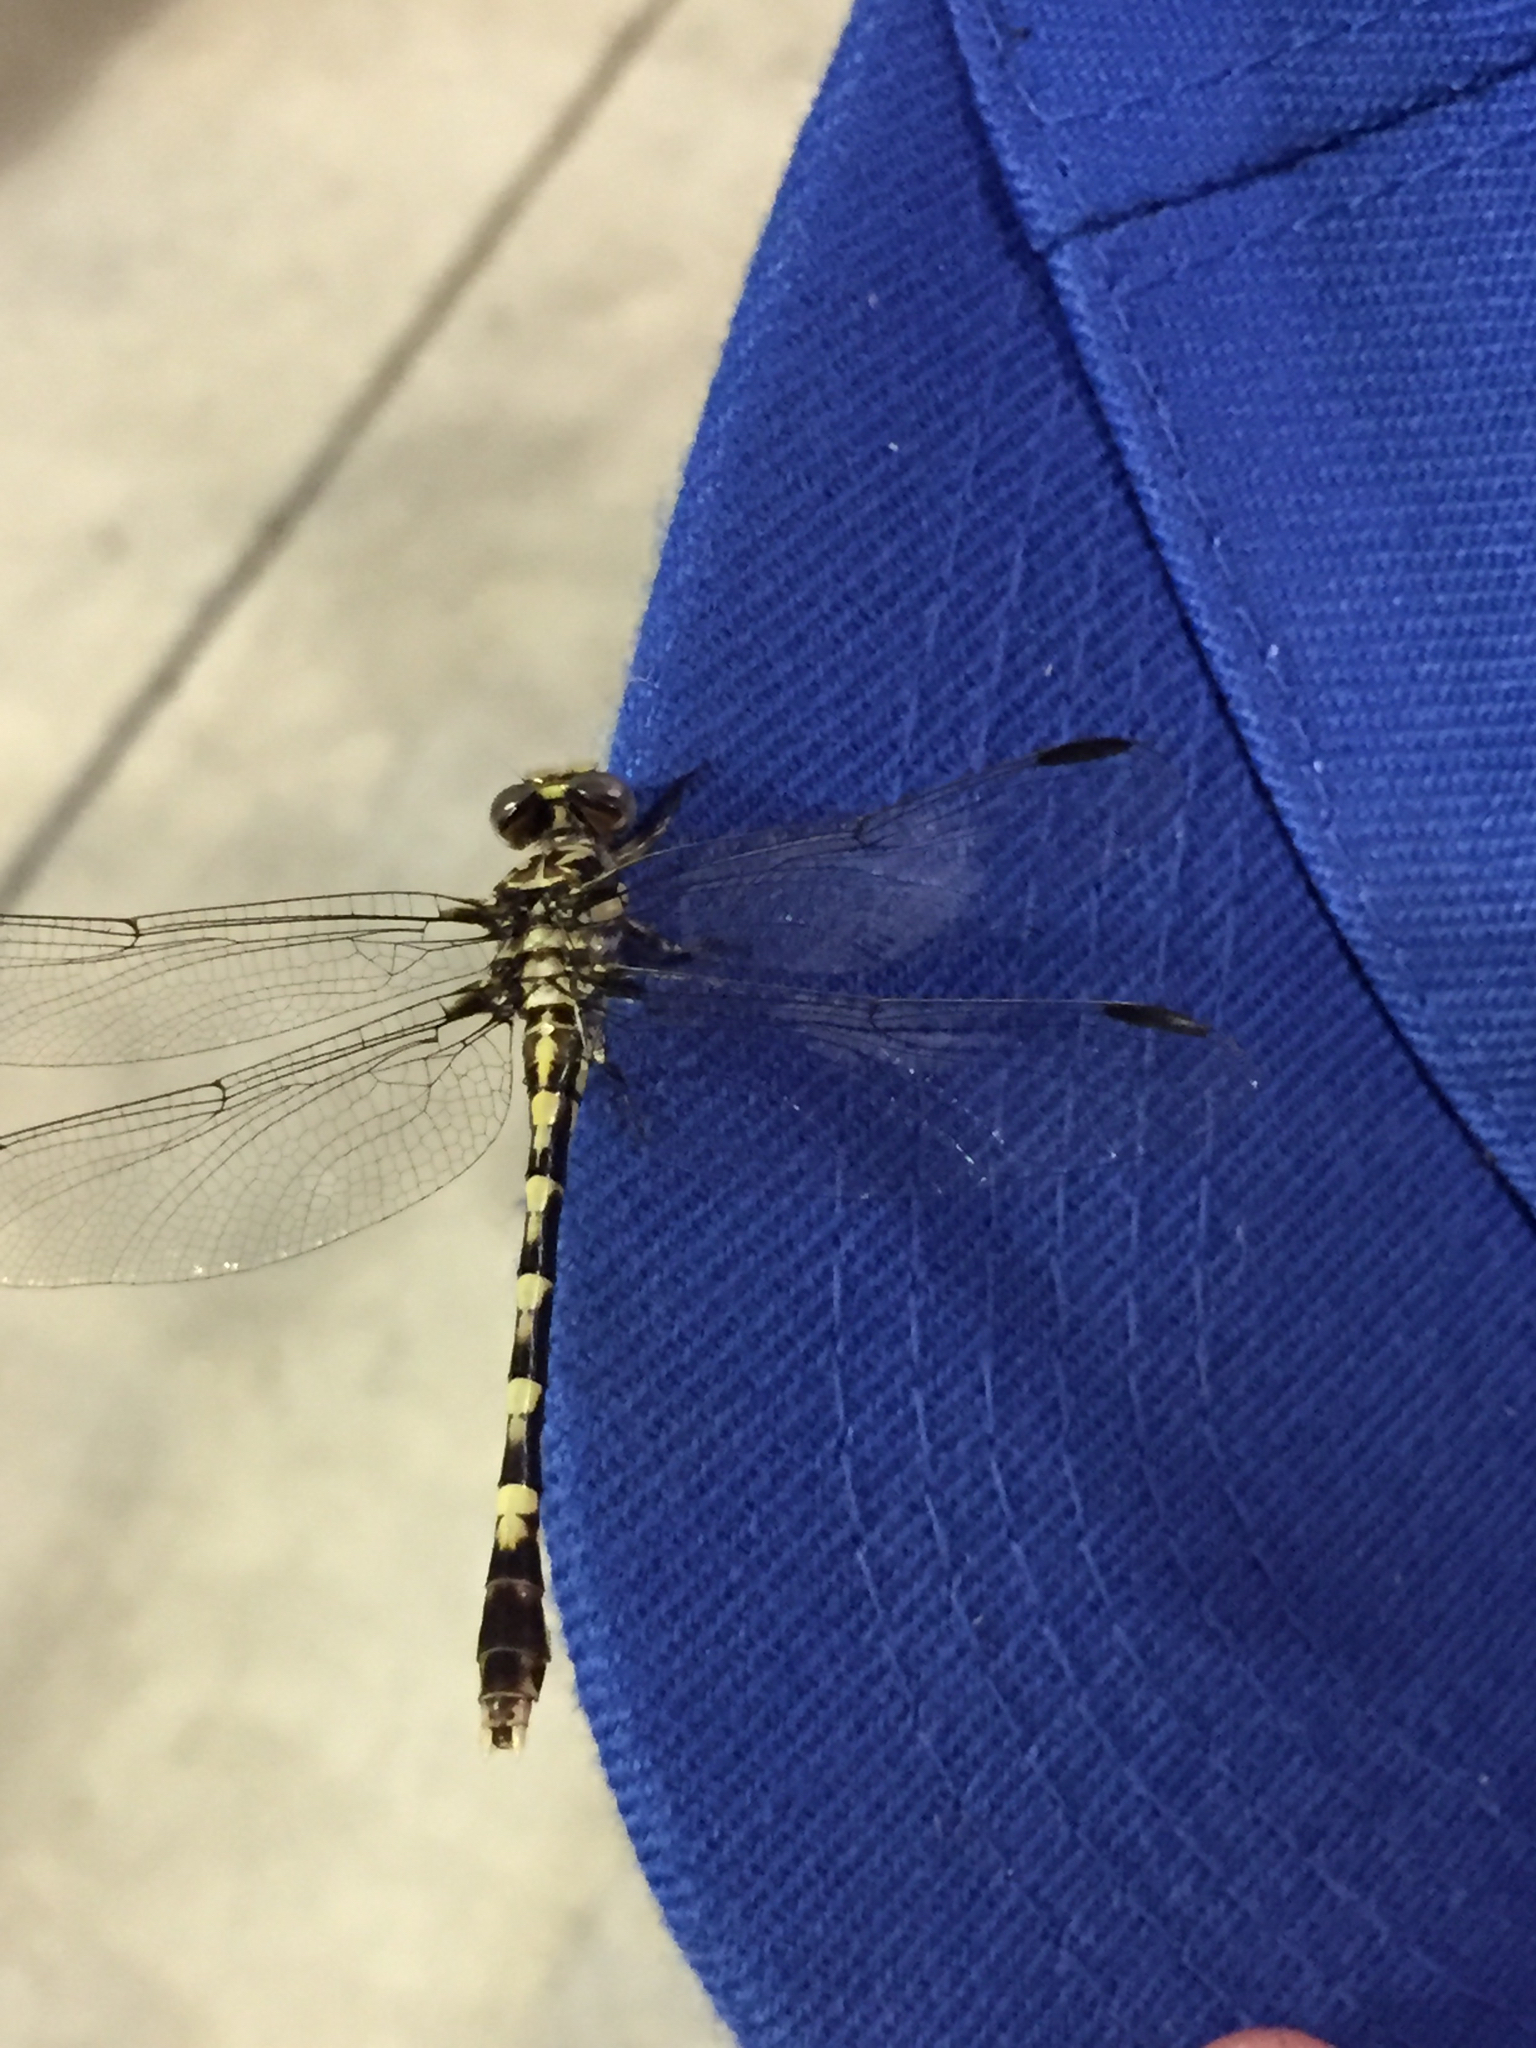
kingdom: Animalia
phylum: Arthropoda
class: Insecta
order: Odonata
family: Gomphidae
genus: Progomphus
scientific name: Progomphus obscurus
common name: Common sanddragon
